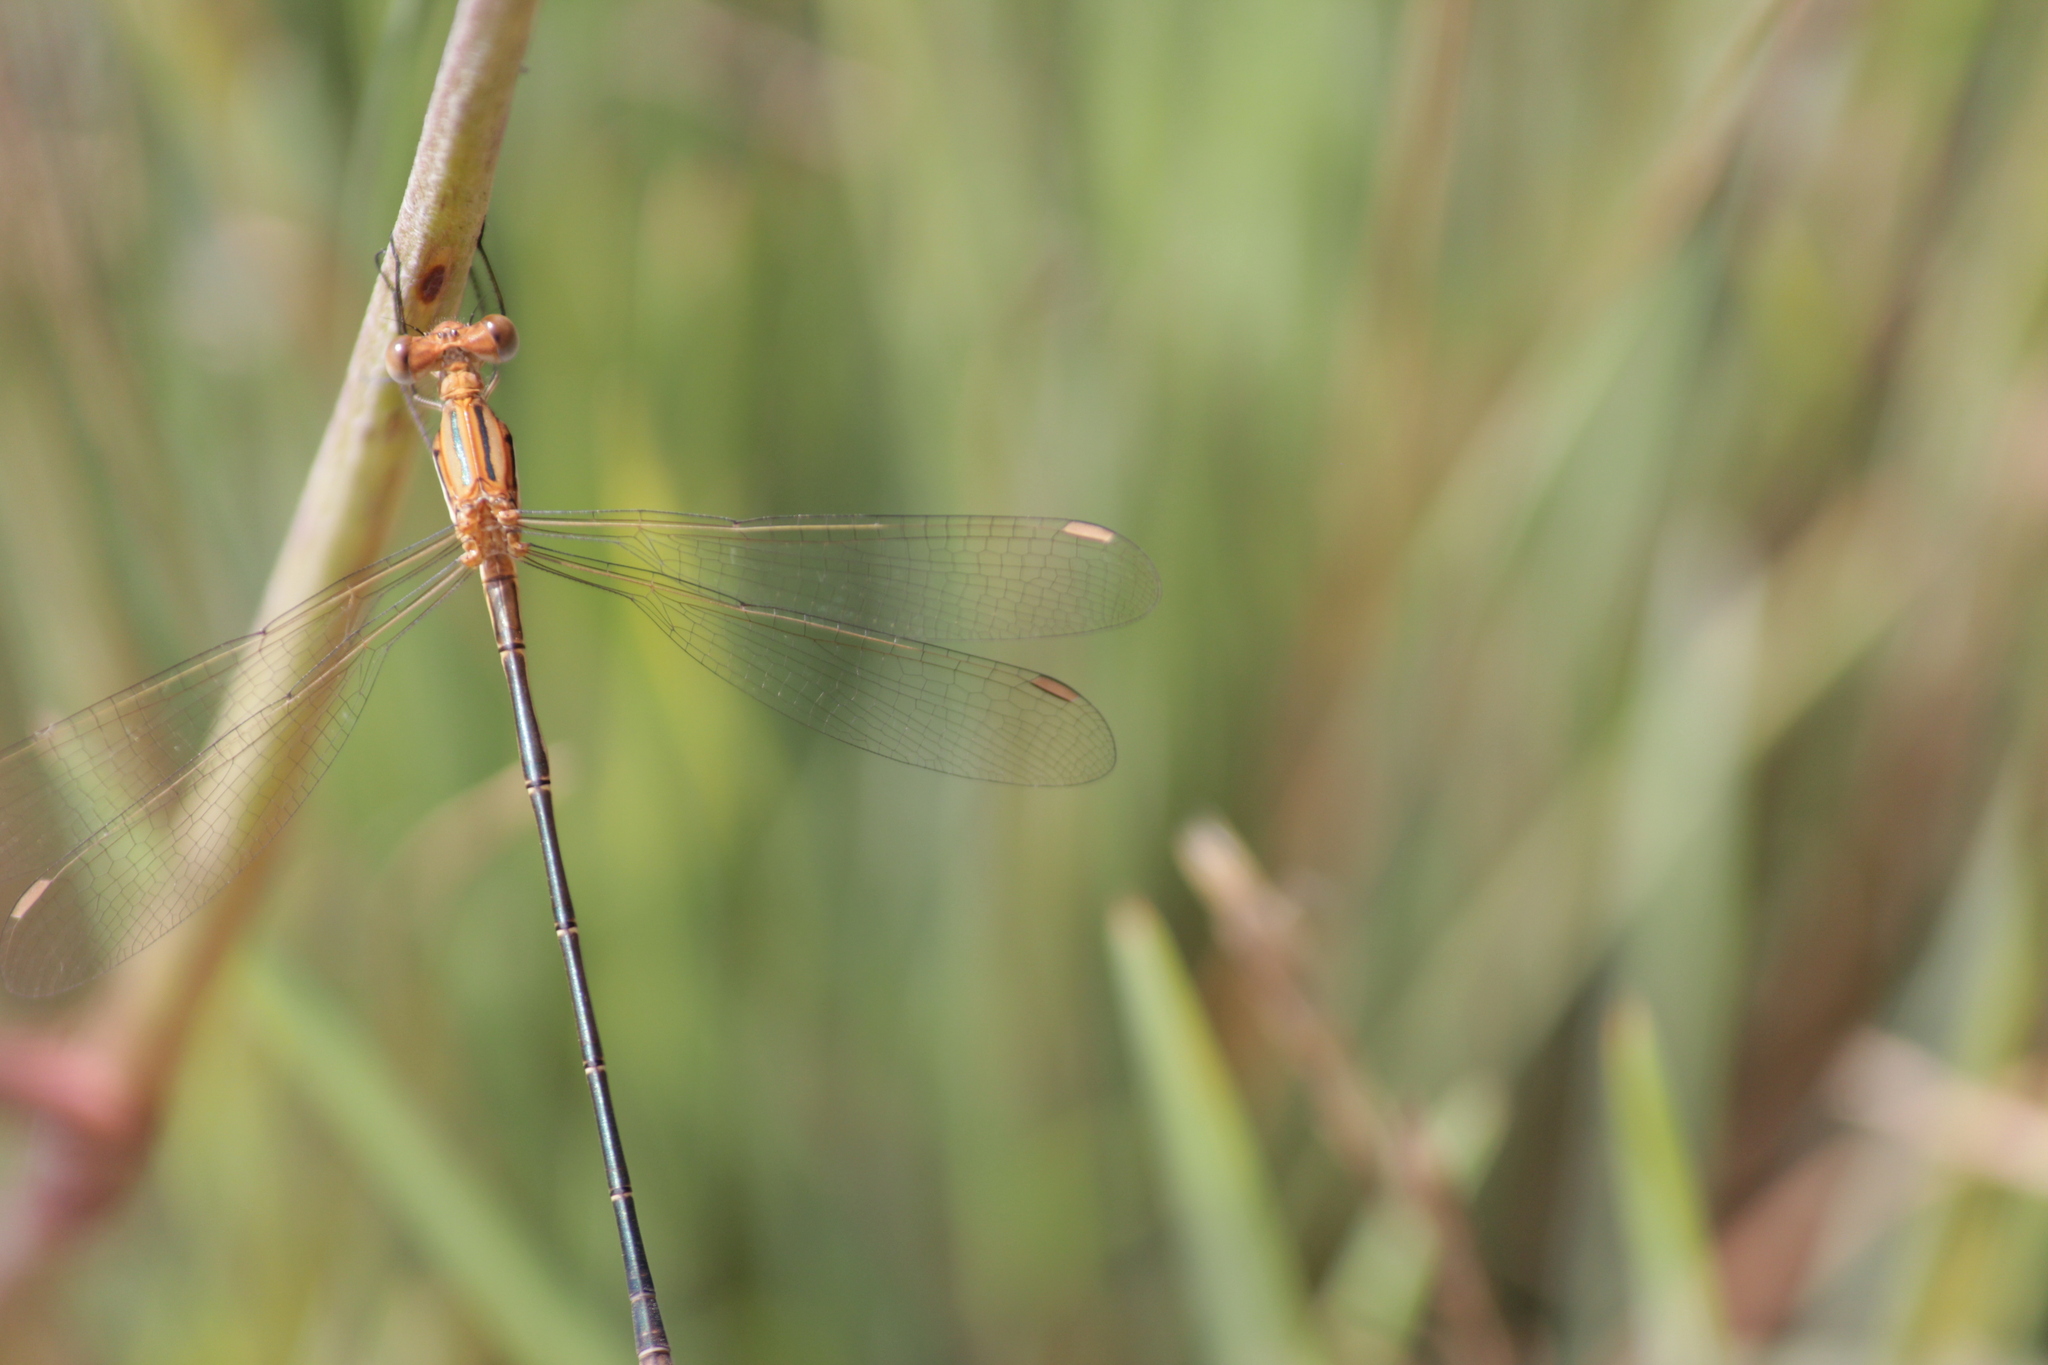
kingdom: Animalia
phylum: Arthropoda
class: Insecta
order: Odonata
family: Lestidae
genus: Lestes
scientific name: Lestes plagiatus
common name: Highland spreadwing
